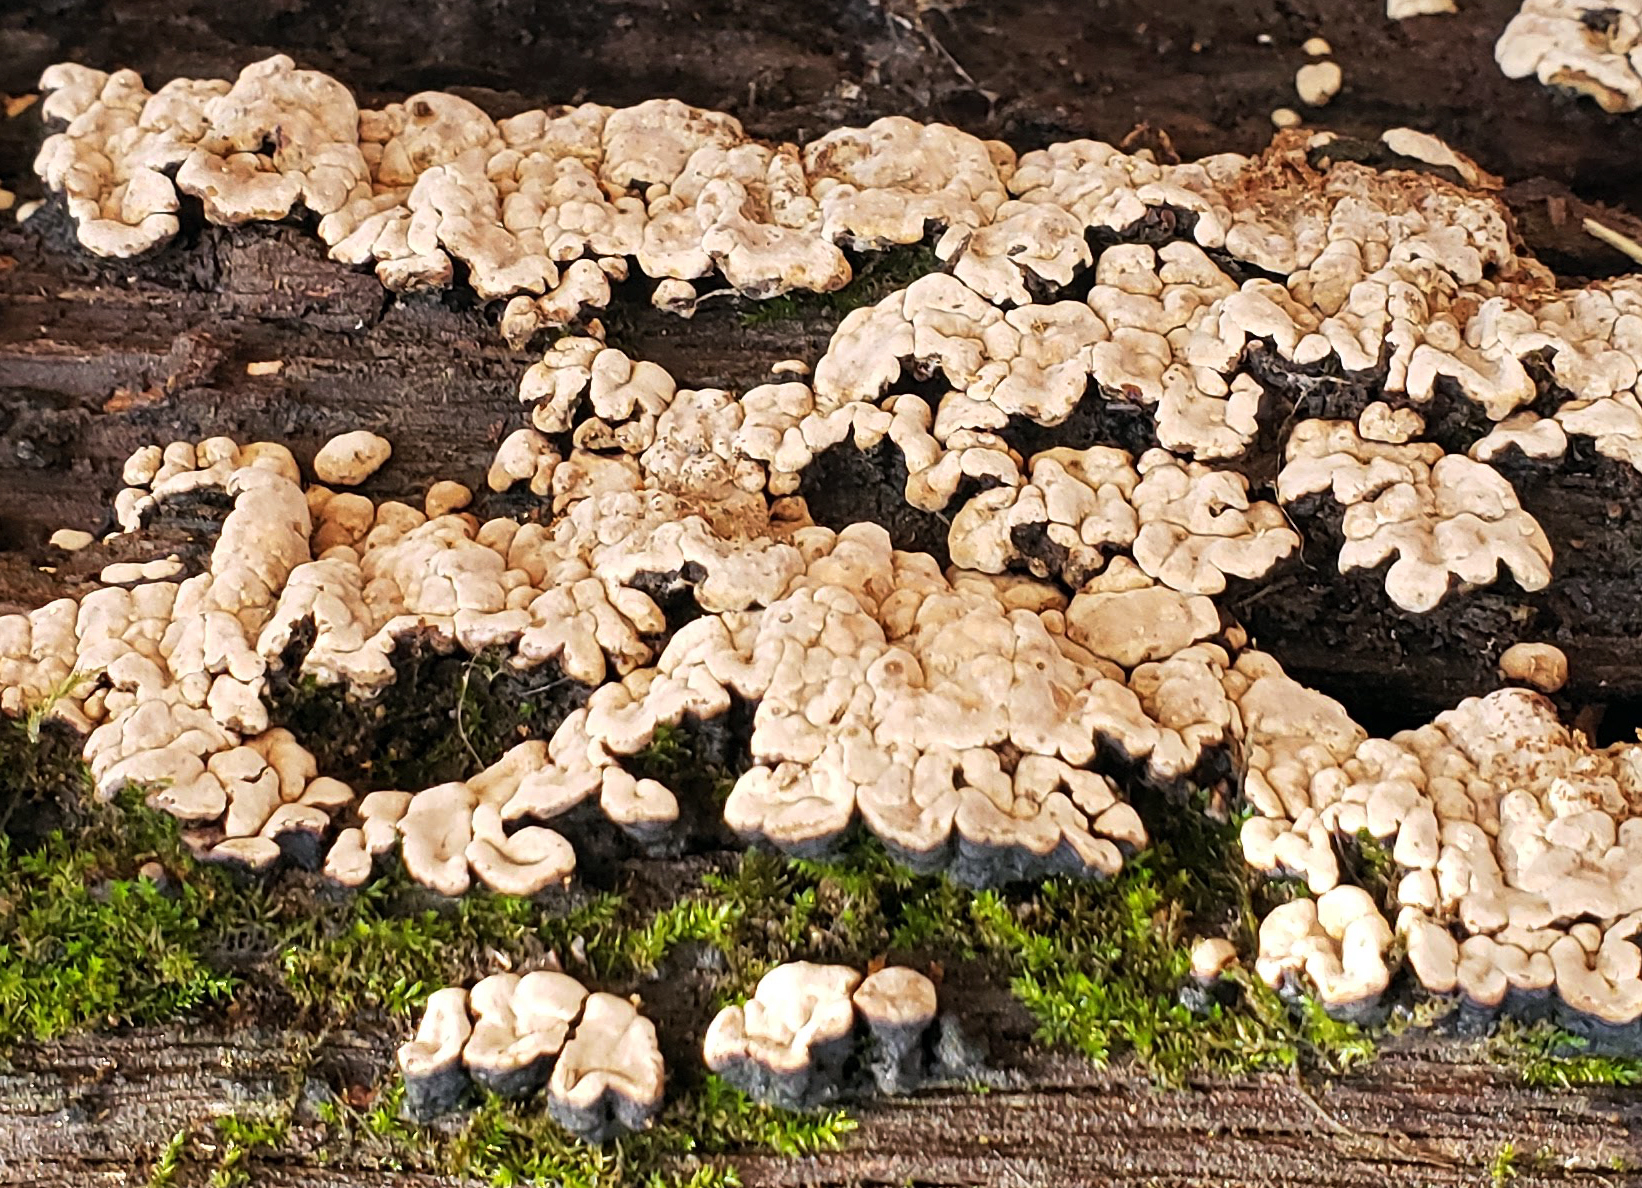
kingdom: Fungi
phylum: Basidiomycota
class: Agaricomycetes
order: Russulales
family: Stereaceae
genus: Xylobolus
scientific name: Xylobolus frustulatus
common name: Ceramic parchment
